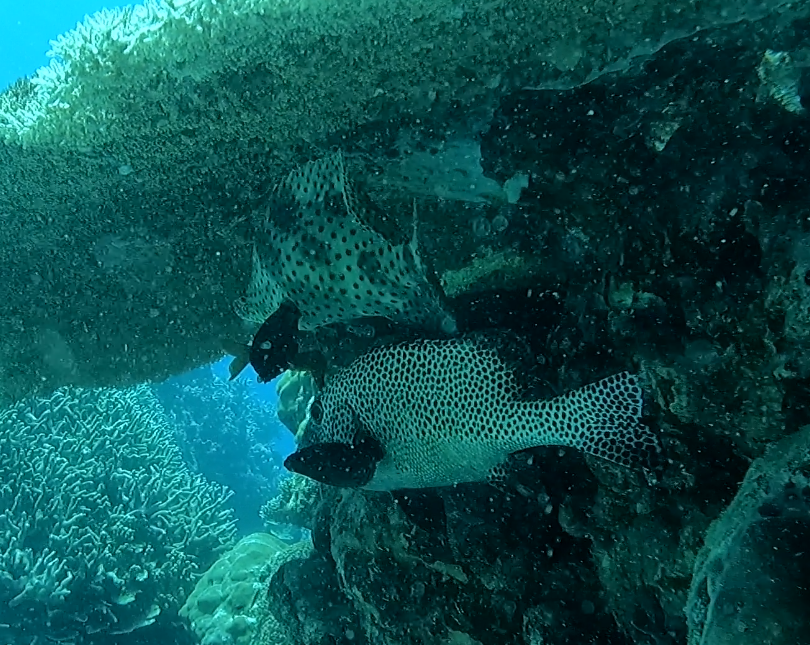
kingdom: Animalia
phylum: Chordata
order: Perciformes
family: Haemulidae
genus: Plectorhinchus
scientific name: Plectorhinchus chaetodonoides
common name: Harlequin sweetlips
